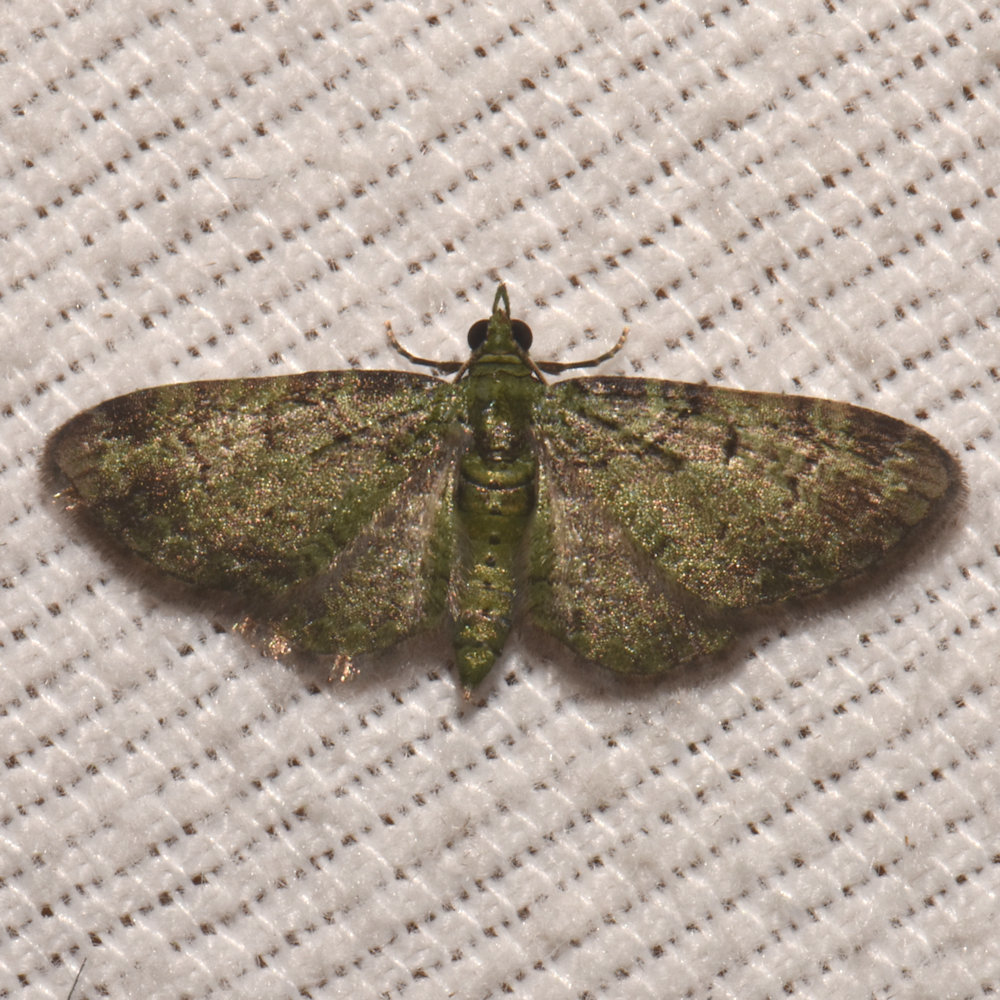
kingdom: Animalia
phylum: Arthropoda
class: Insecta
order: Lepidoptera
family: Geometridae
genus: Pasiphila
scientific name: Pasiphila rectangulata
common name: Green pug
